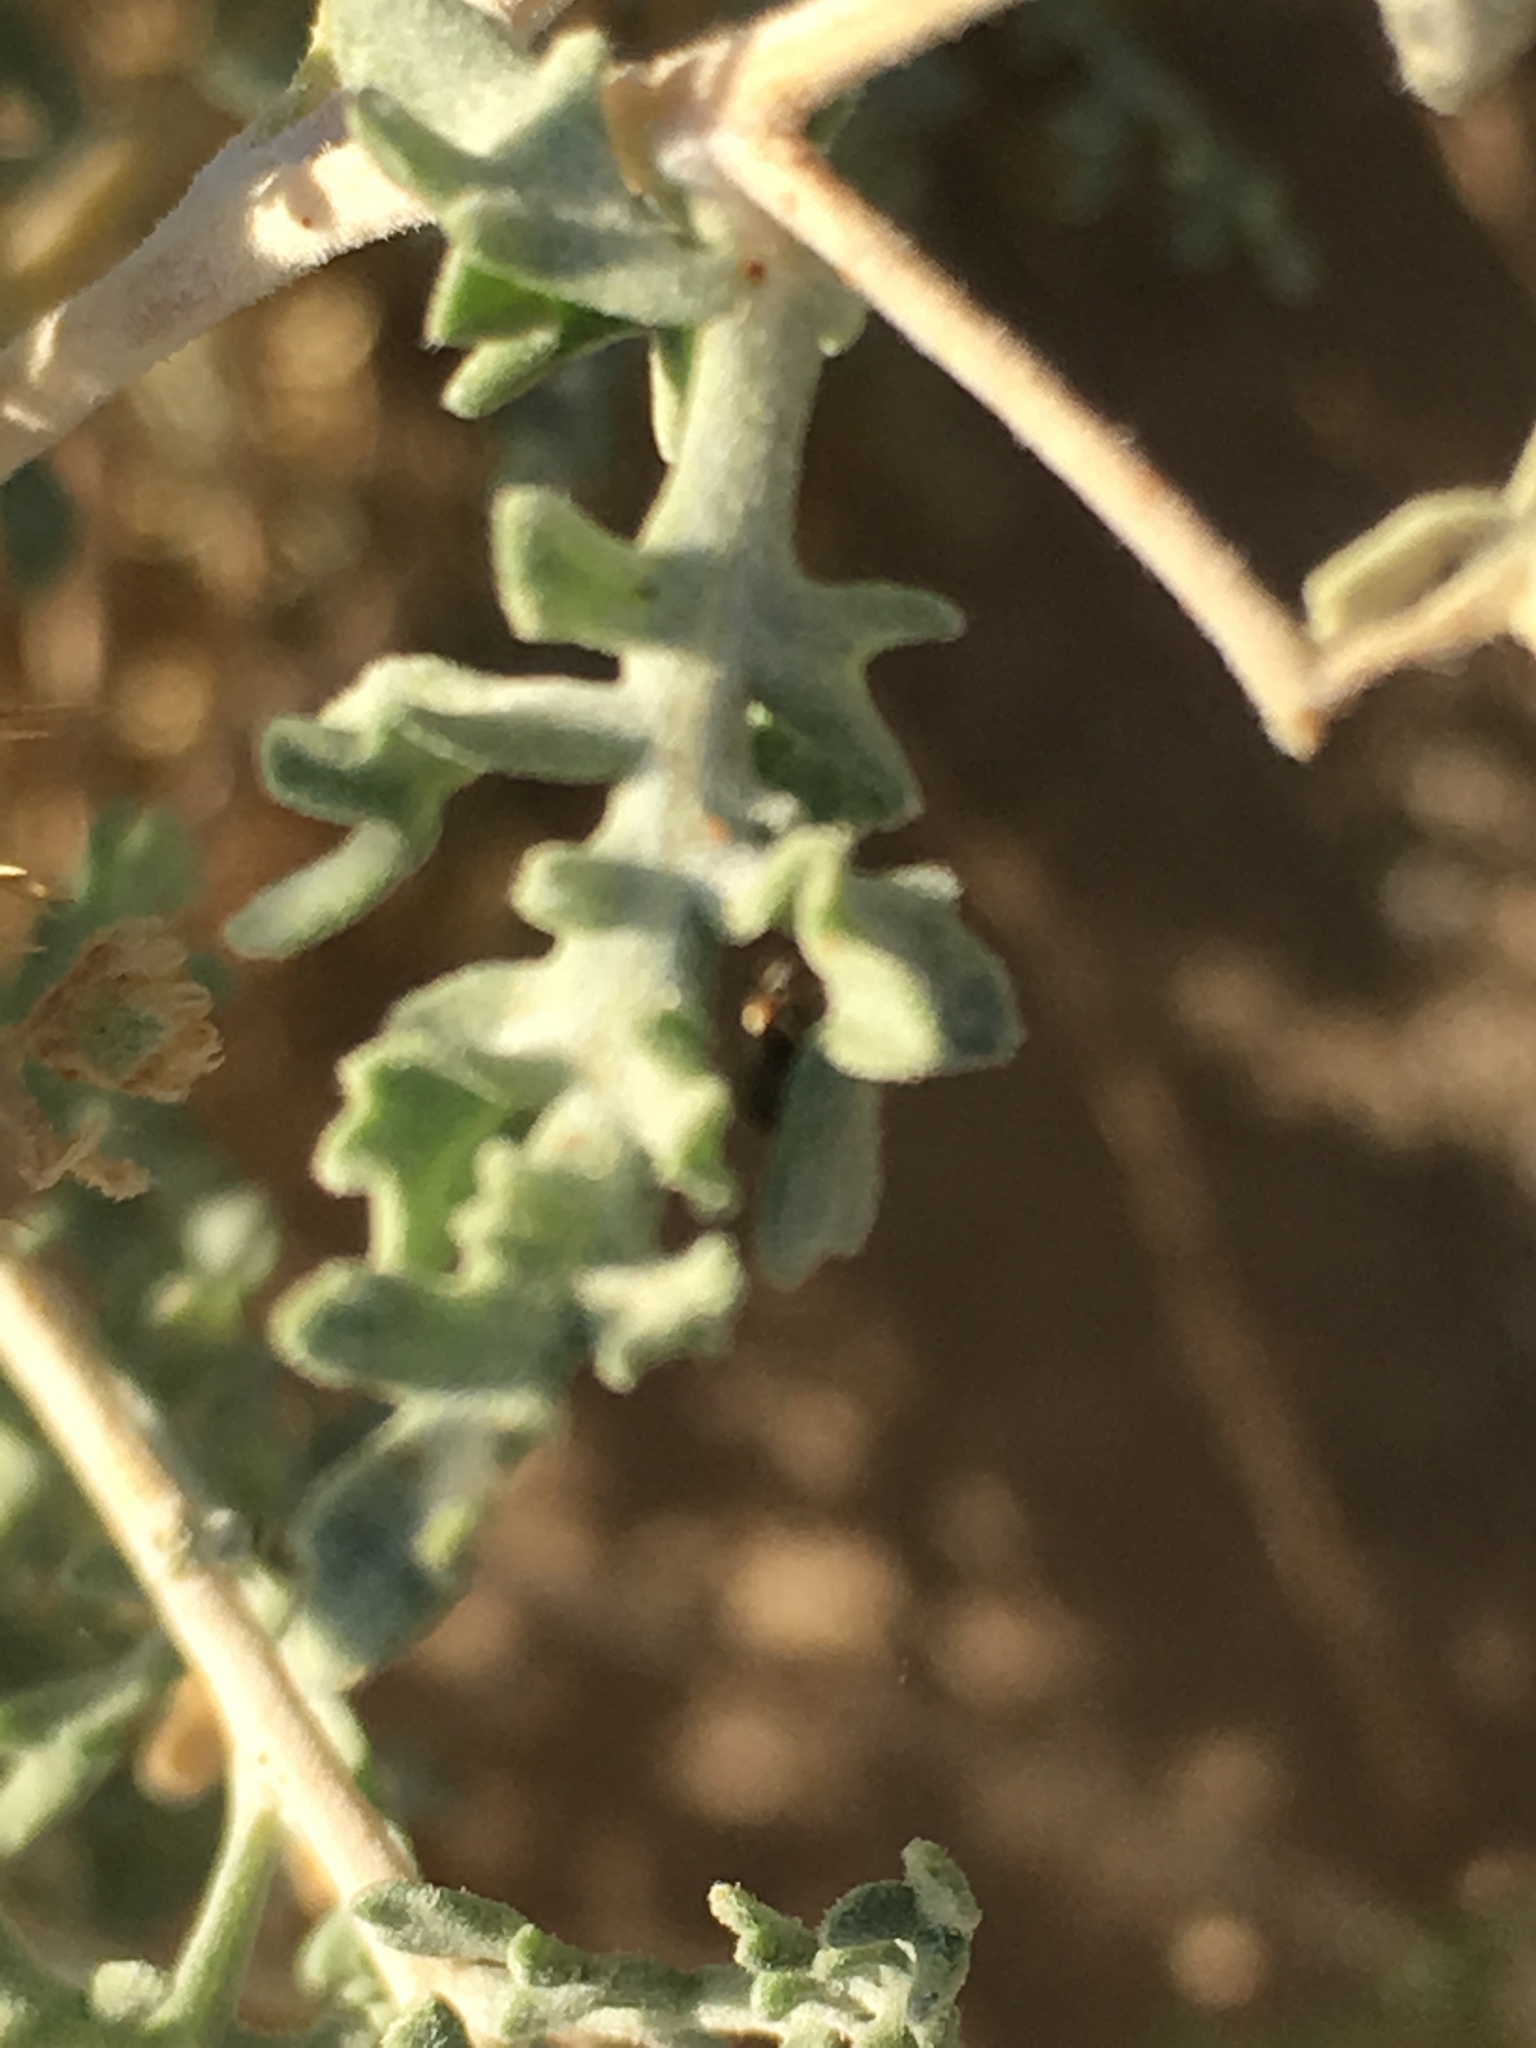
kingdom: Plantae
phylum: Tracheophyta
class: Magnoliopsida
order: Asterales
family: Asteraceae
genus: Ambrosia
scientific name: Ambrosia dumosa
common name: Bur-sage
